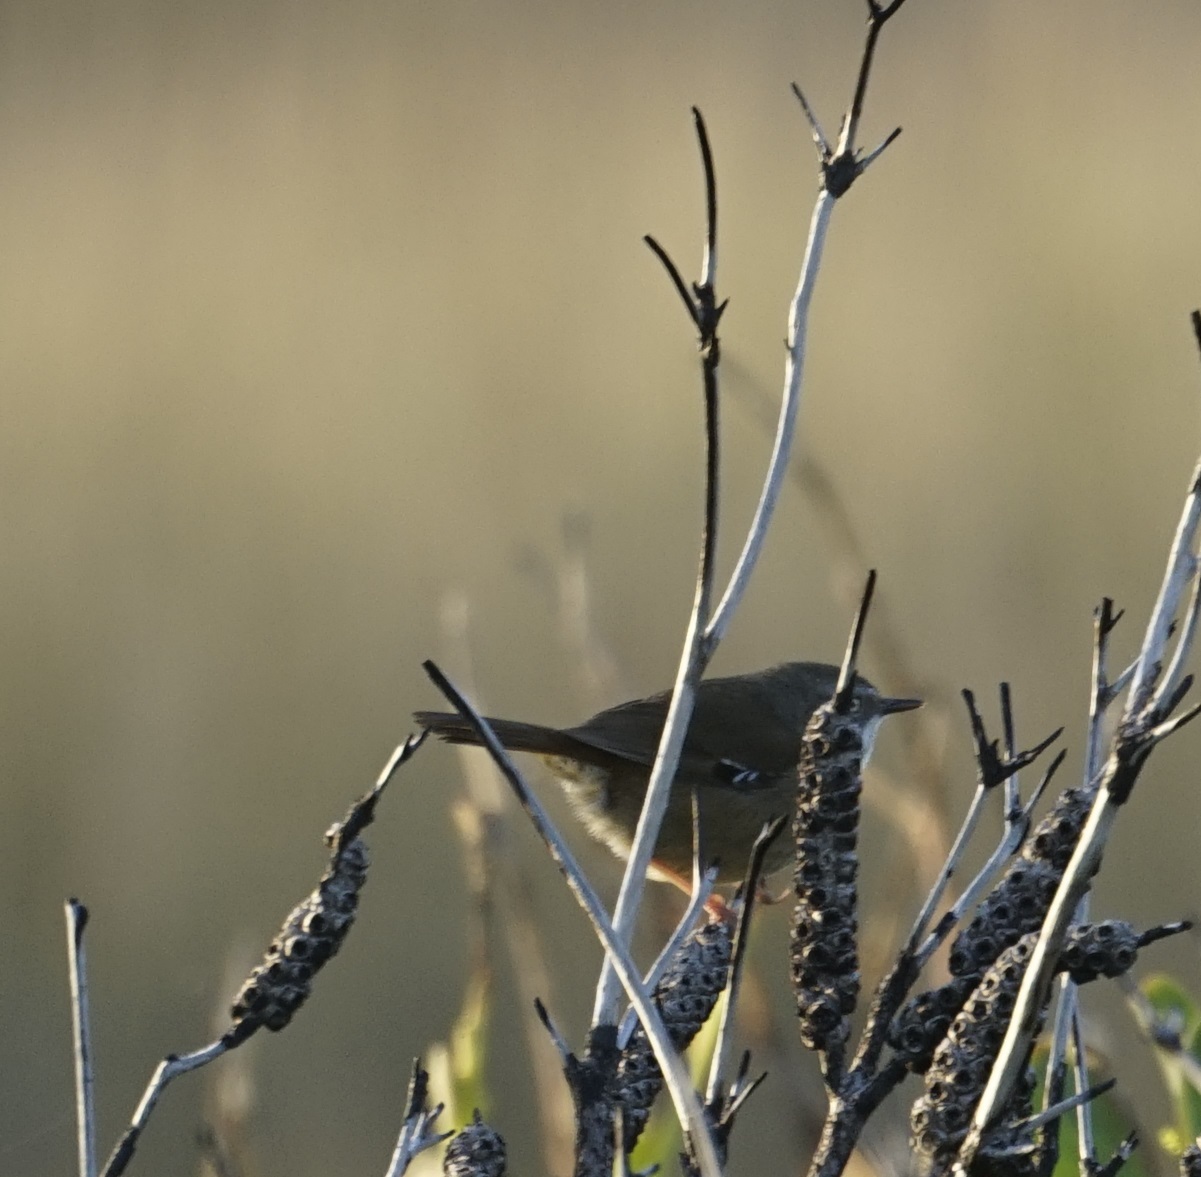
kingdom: Animalia
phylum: Chordata
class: Aves
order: Passeriformes
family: Acanthizidae
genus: Sericornis
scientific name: Sericornis frontalis
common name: White-browed scrubwren
